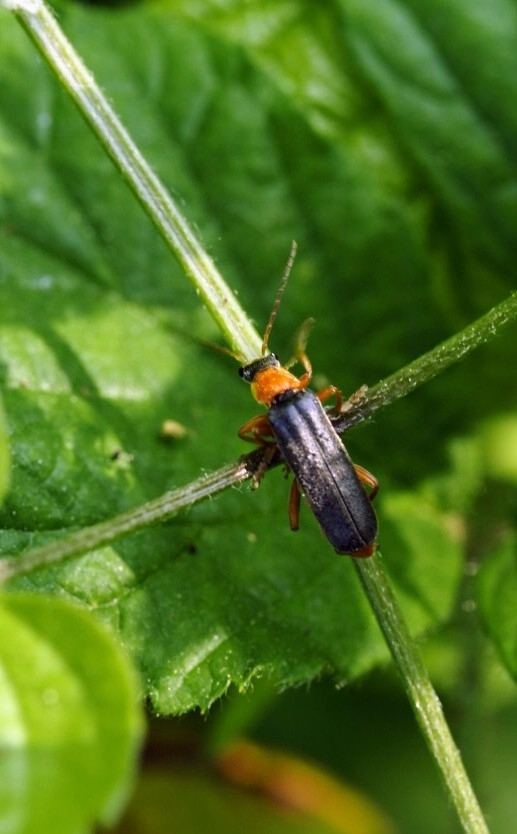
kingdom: Animalia
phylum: Arthropoda
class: Insecta
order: Coleoptera
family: Cantharidae
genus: Cantharis
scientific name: Cantharis pellucida
